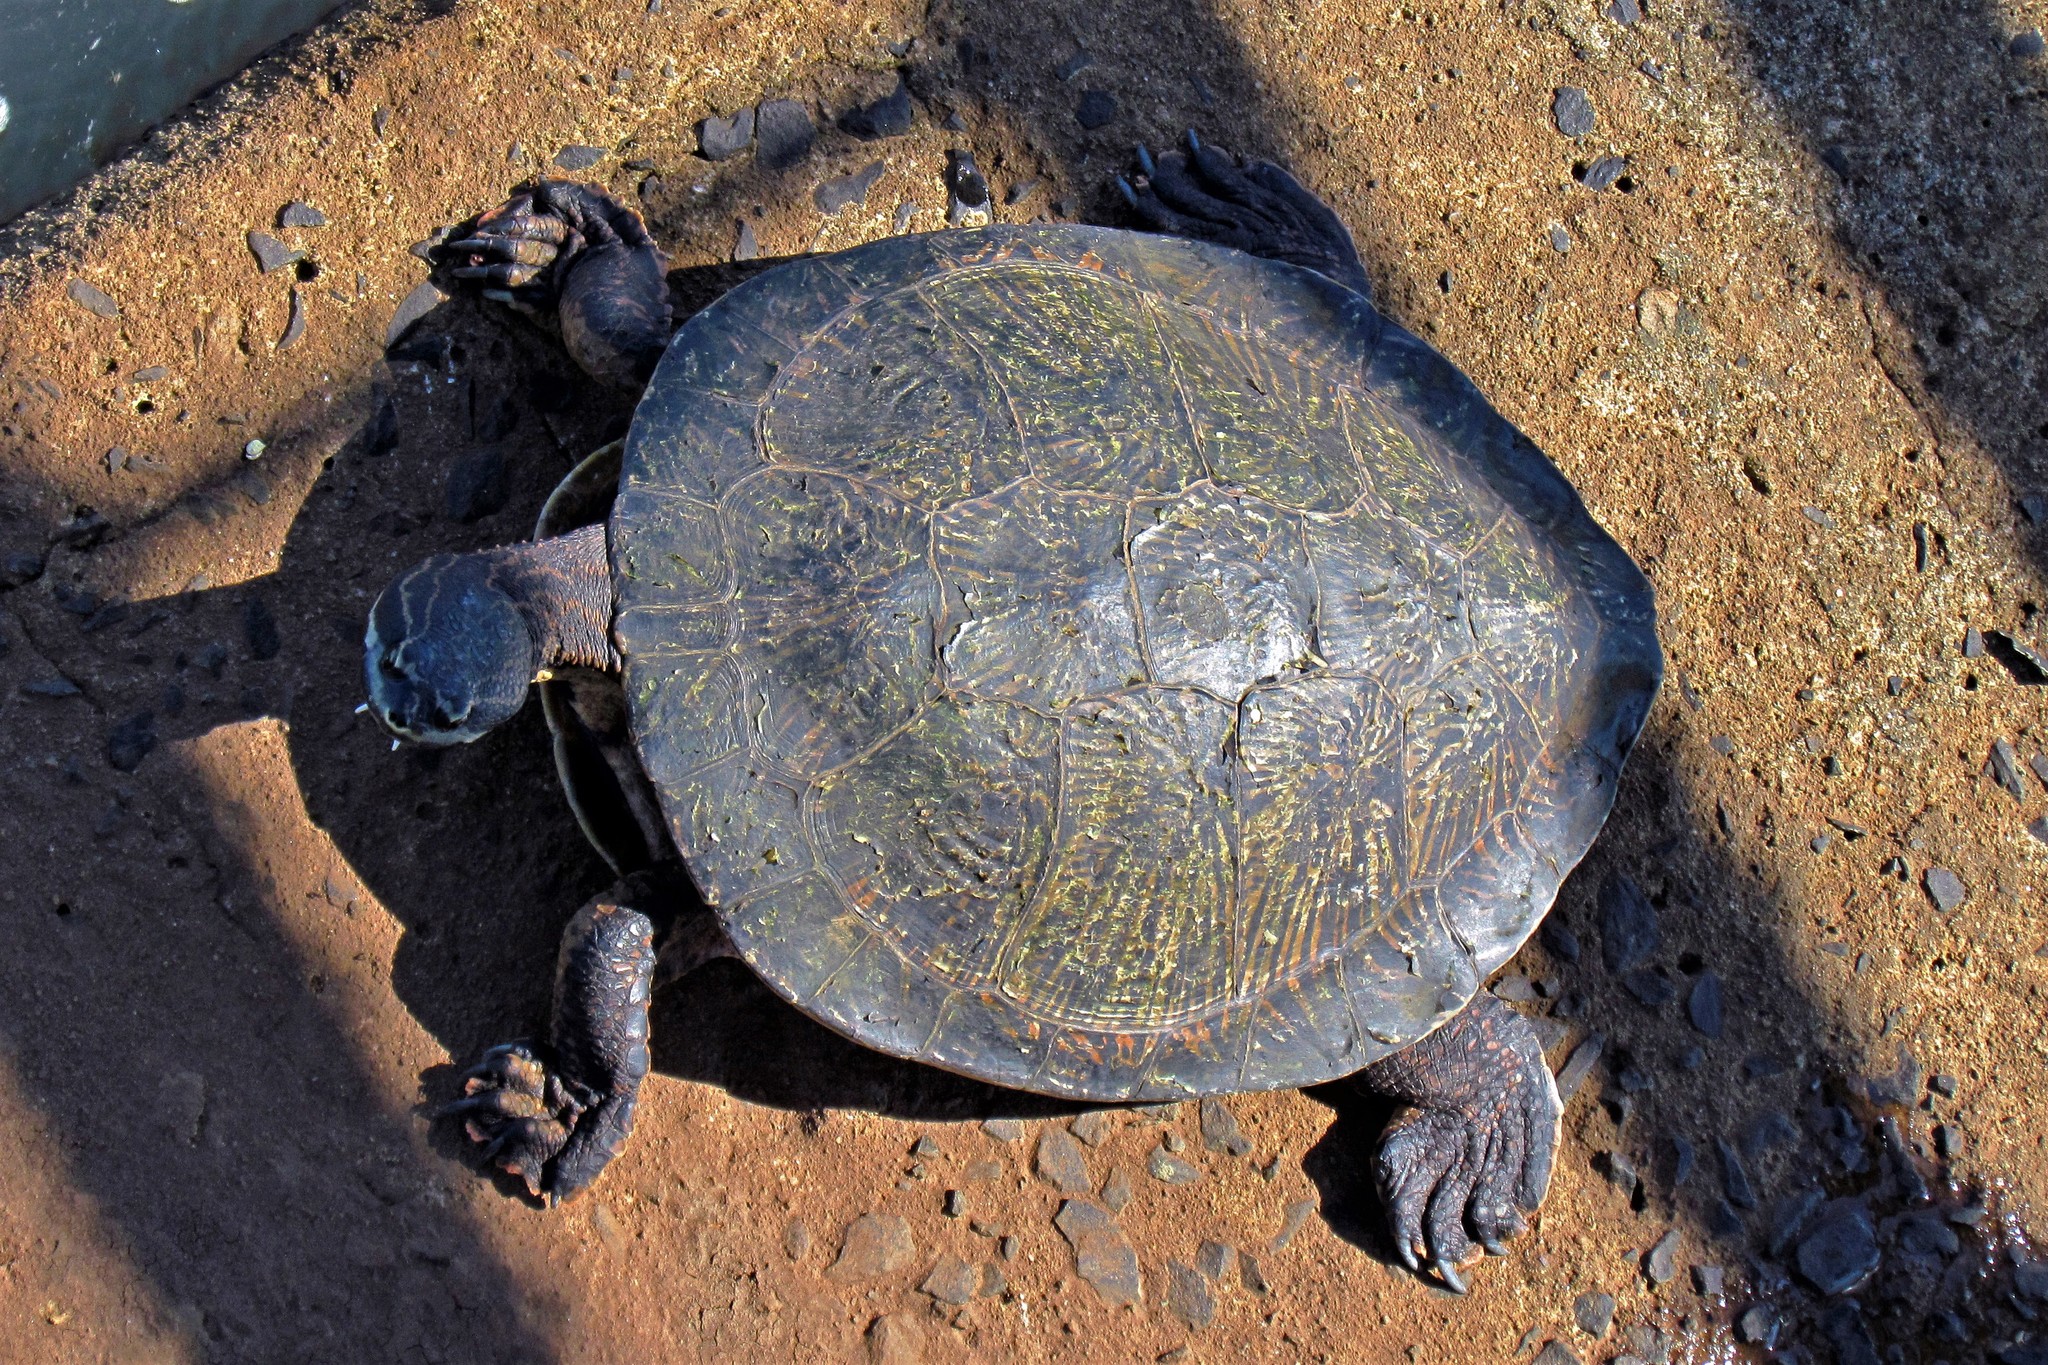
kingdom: Animalia
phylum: Chordata
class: Testudines
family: Chelidae
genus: Phrynops
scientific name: Phrynops williamsi
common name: Williams side-necked turtle
